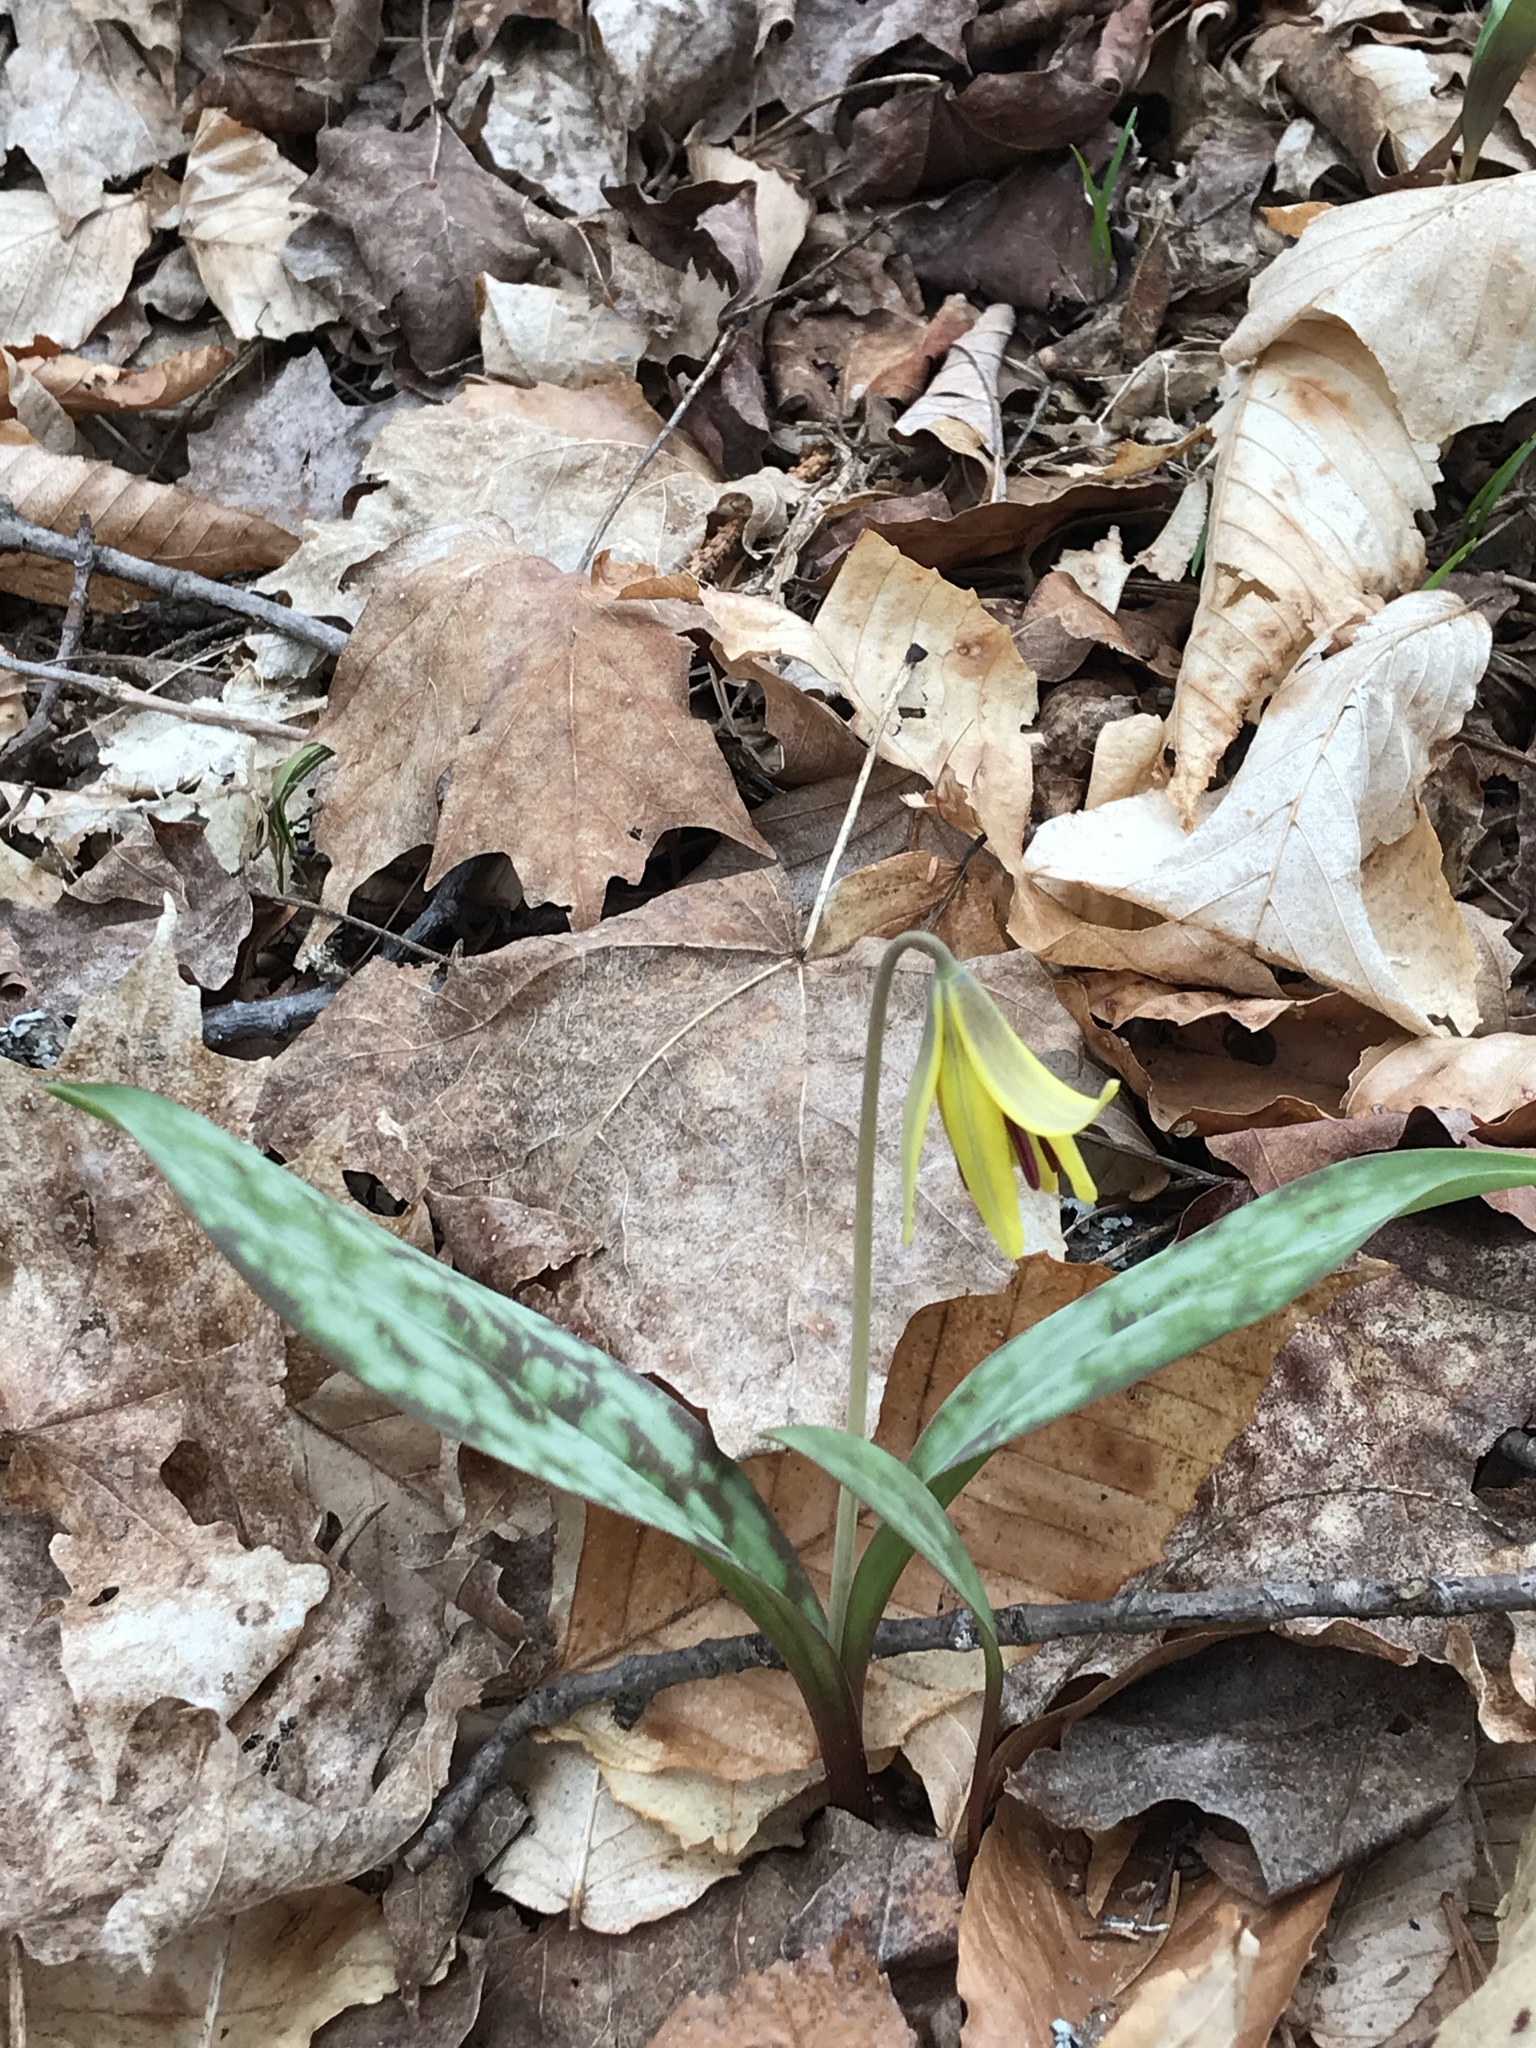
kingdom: Plantae
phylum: Tracheophyta
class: Liliopsida
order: Liliales
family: Liliaceae
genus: Erythronium
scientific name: Erythronium americanum
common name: Yellow adder's-tongue
